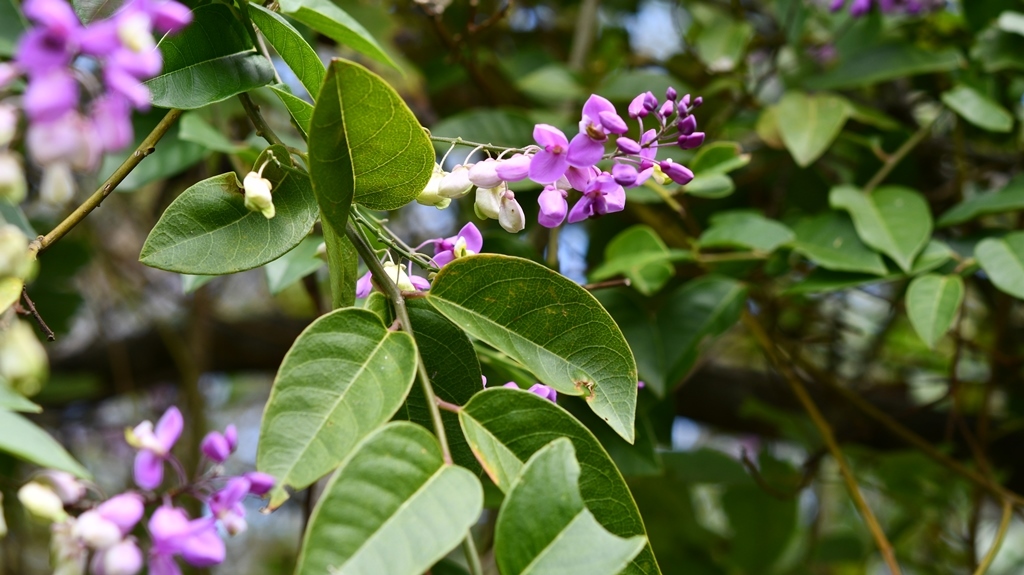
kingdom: Plantae
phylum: Tracheophyta
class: Magnoliopsida
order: Fabales
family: Polygalaceae
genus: Asemeia
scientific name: Asemeia floribunda
